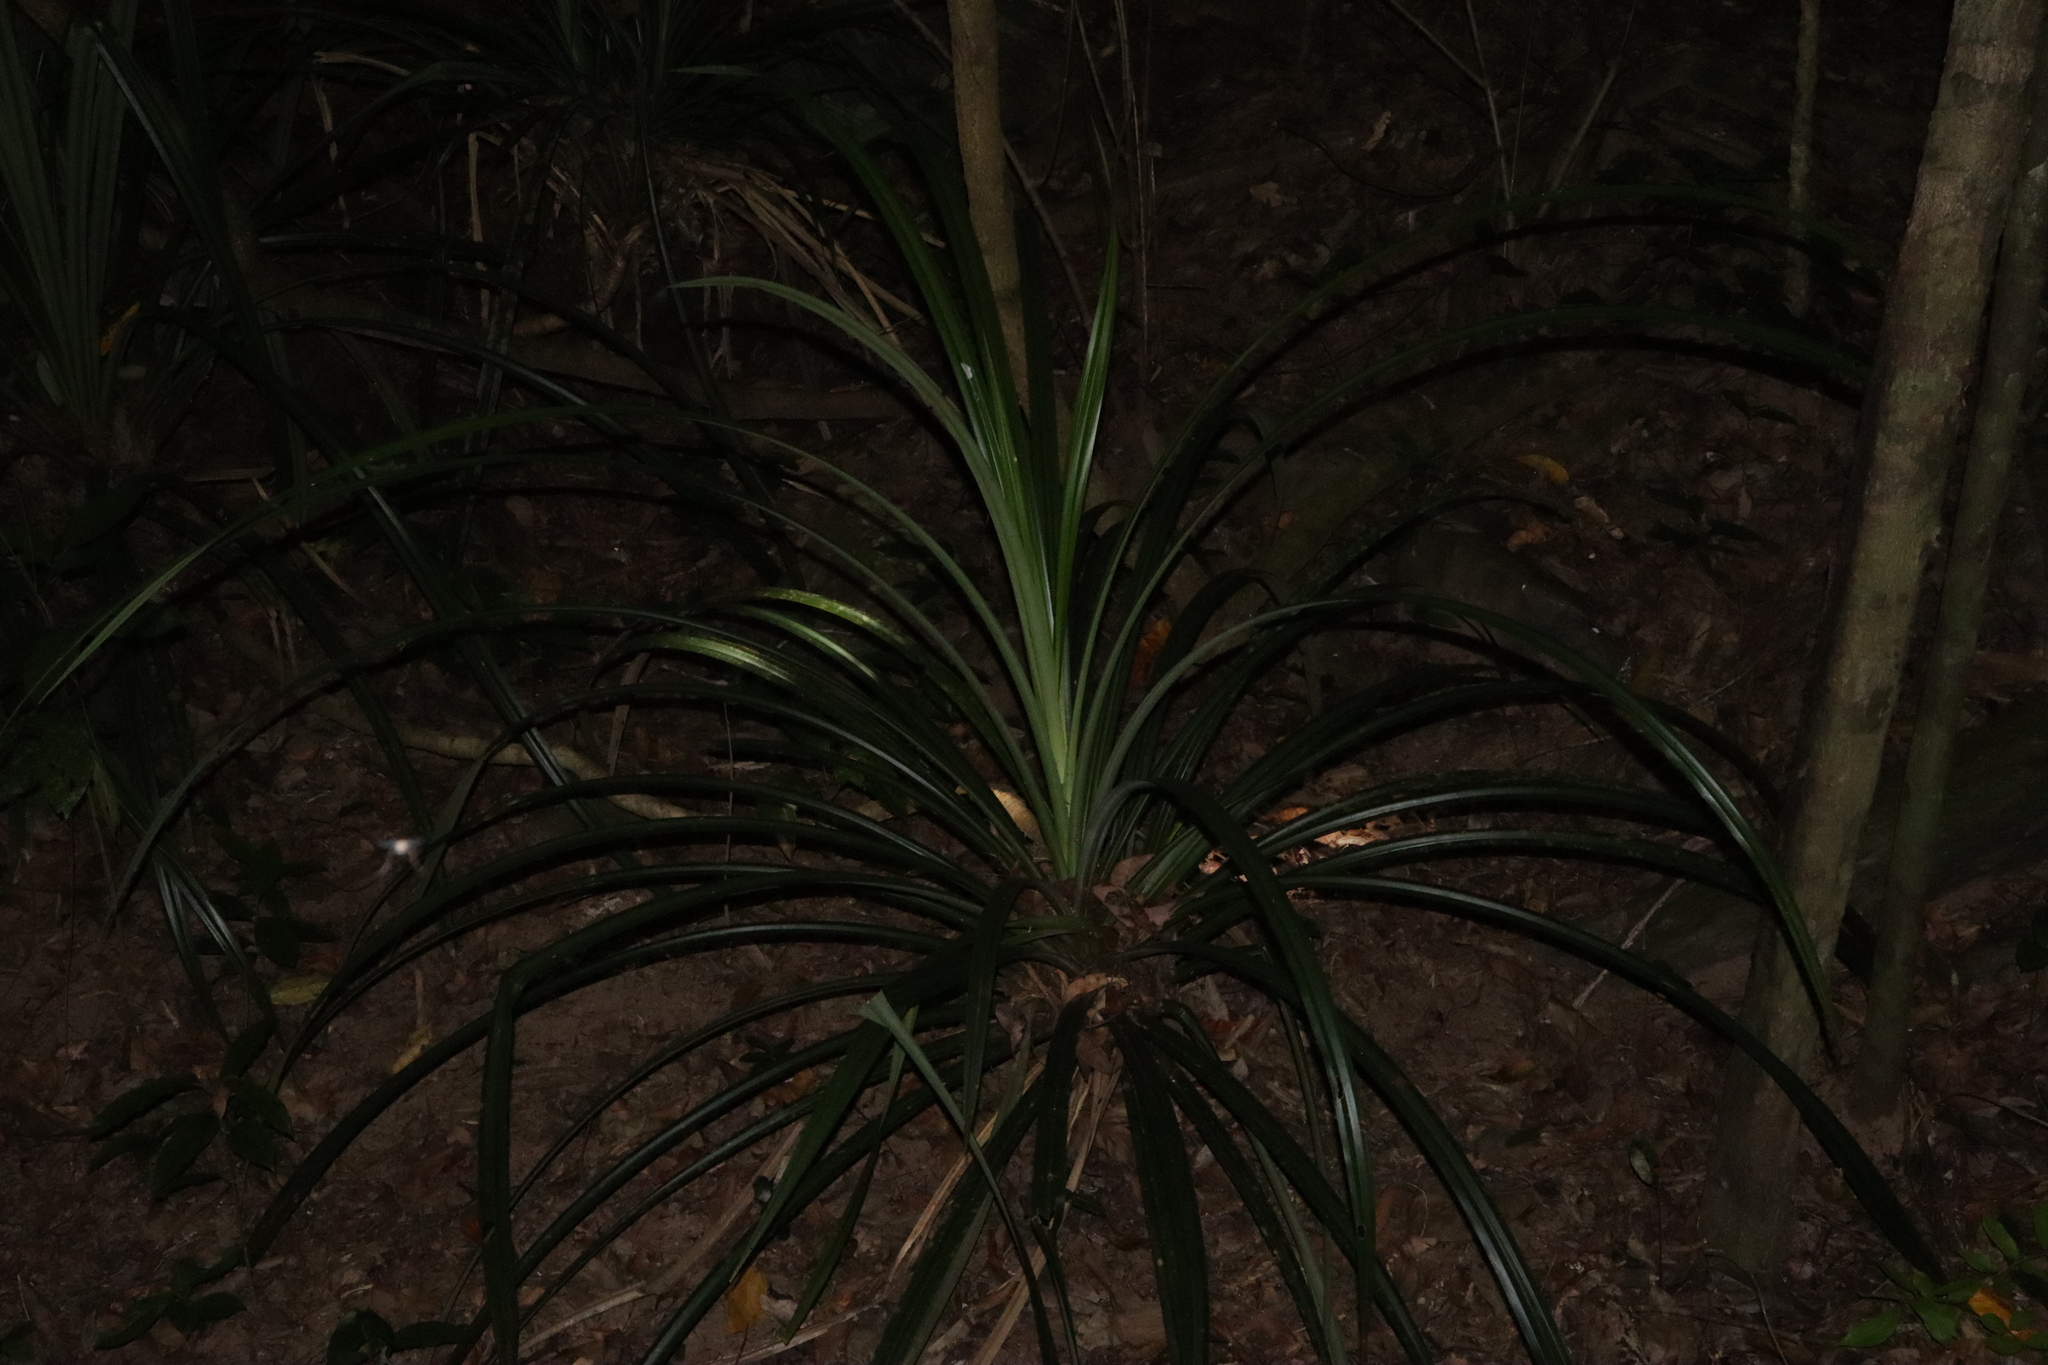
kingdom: Plantae
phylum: Tracheophyta
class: Liliopsida
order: Pandanales
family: Pandanaceae
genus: Benstonea
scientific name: Benstonea monticola
